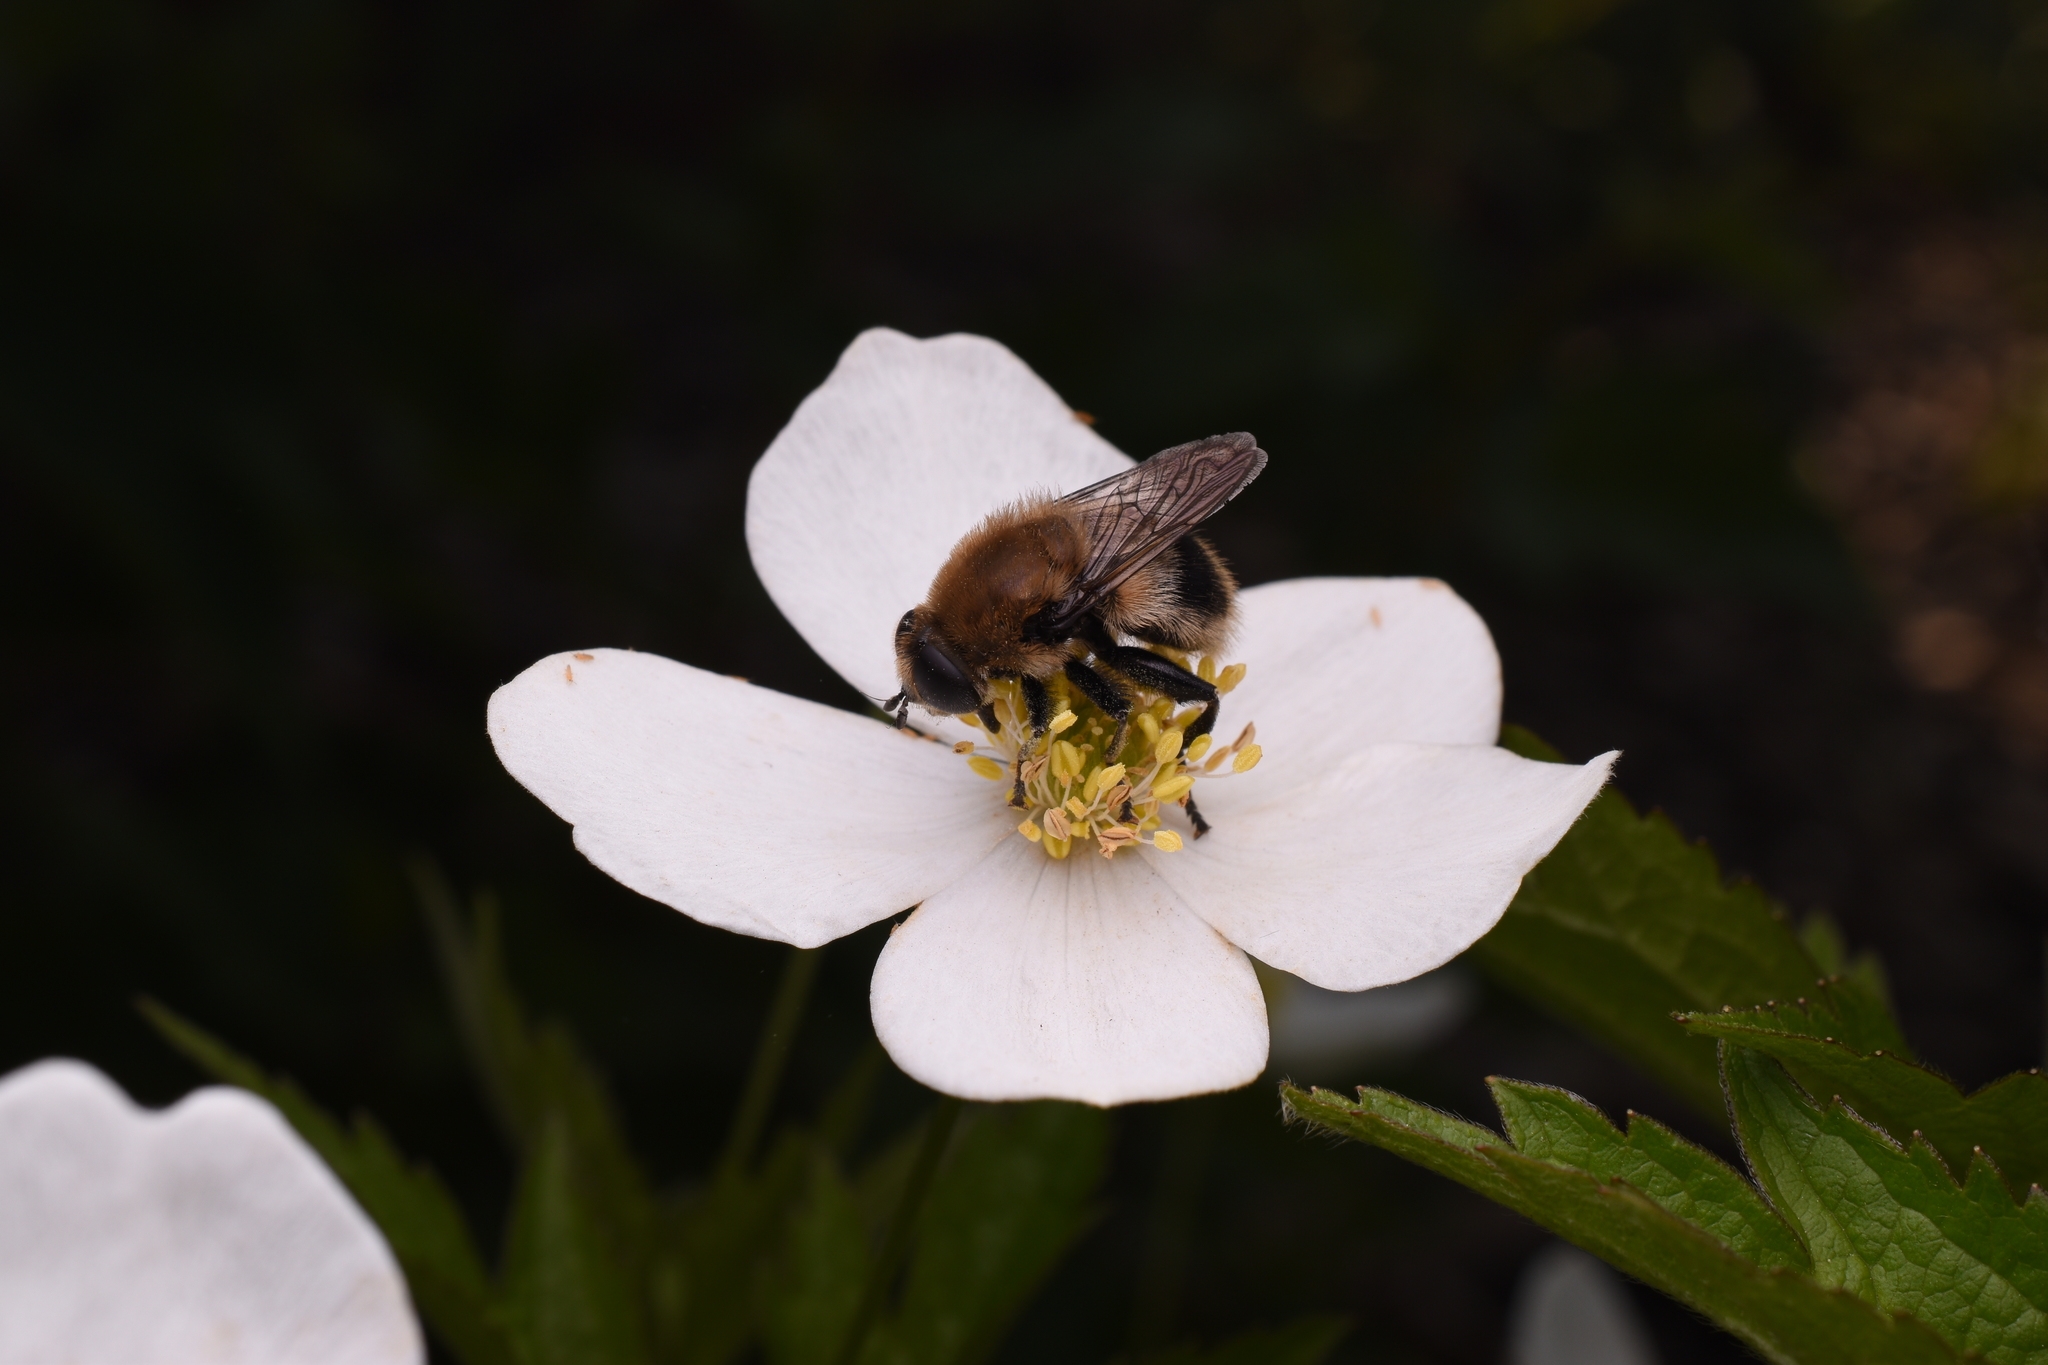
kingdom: Animalia
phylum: Arthropoda
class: Insecta
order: Diptera
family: Syrphidae
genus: Merodon
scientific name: Merodon equestris
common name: Greater bulb-fly
